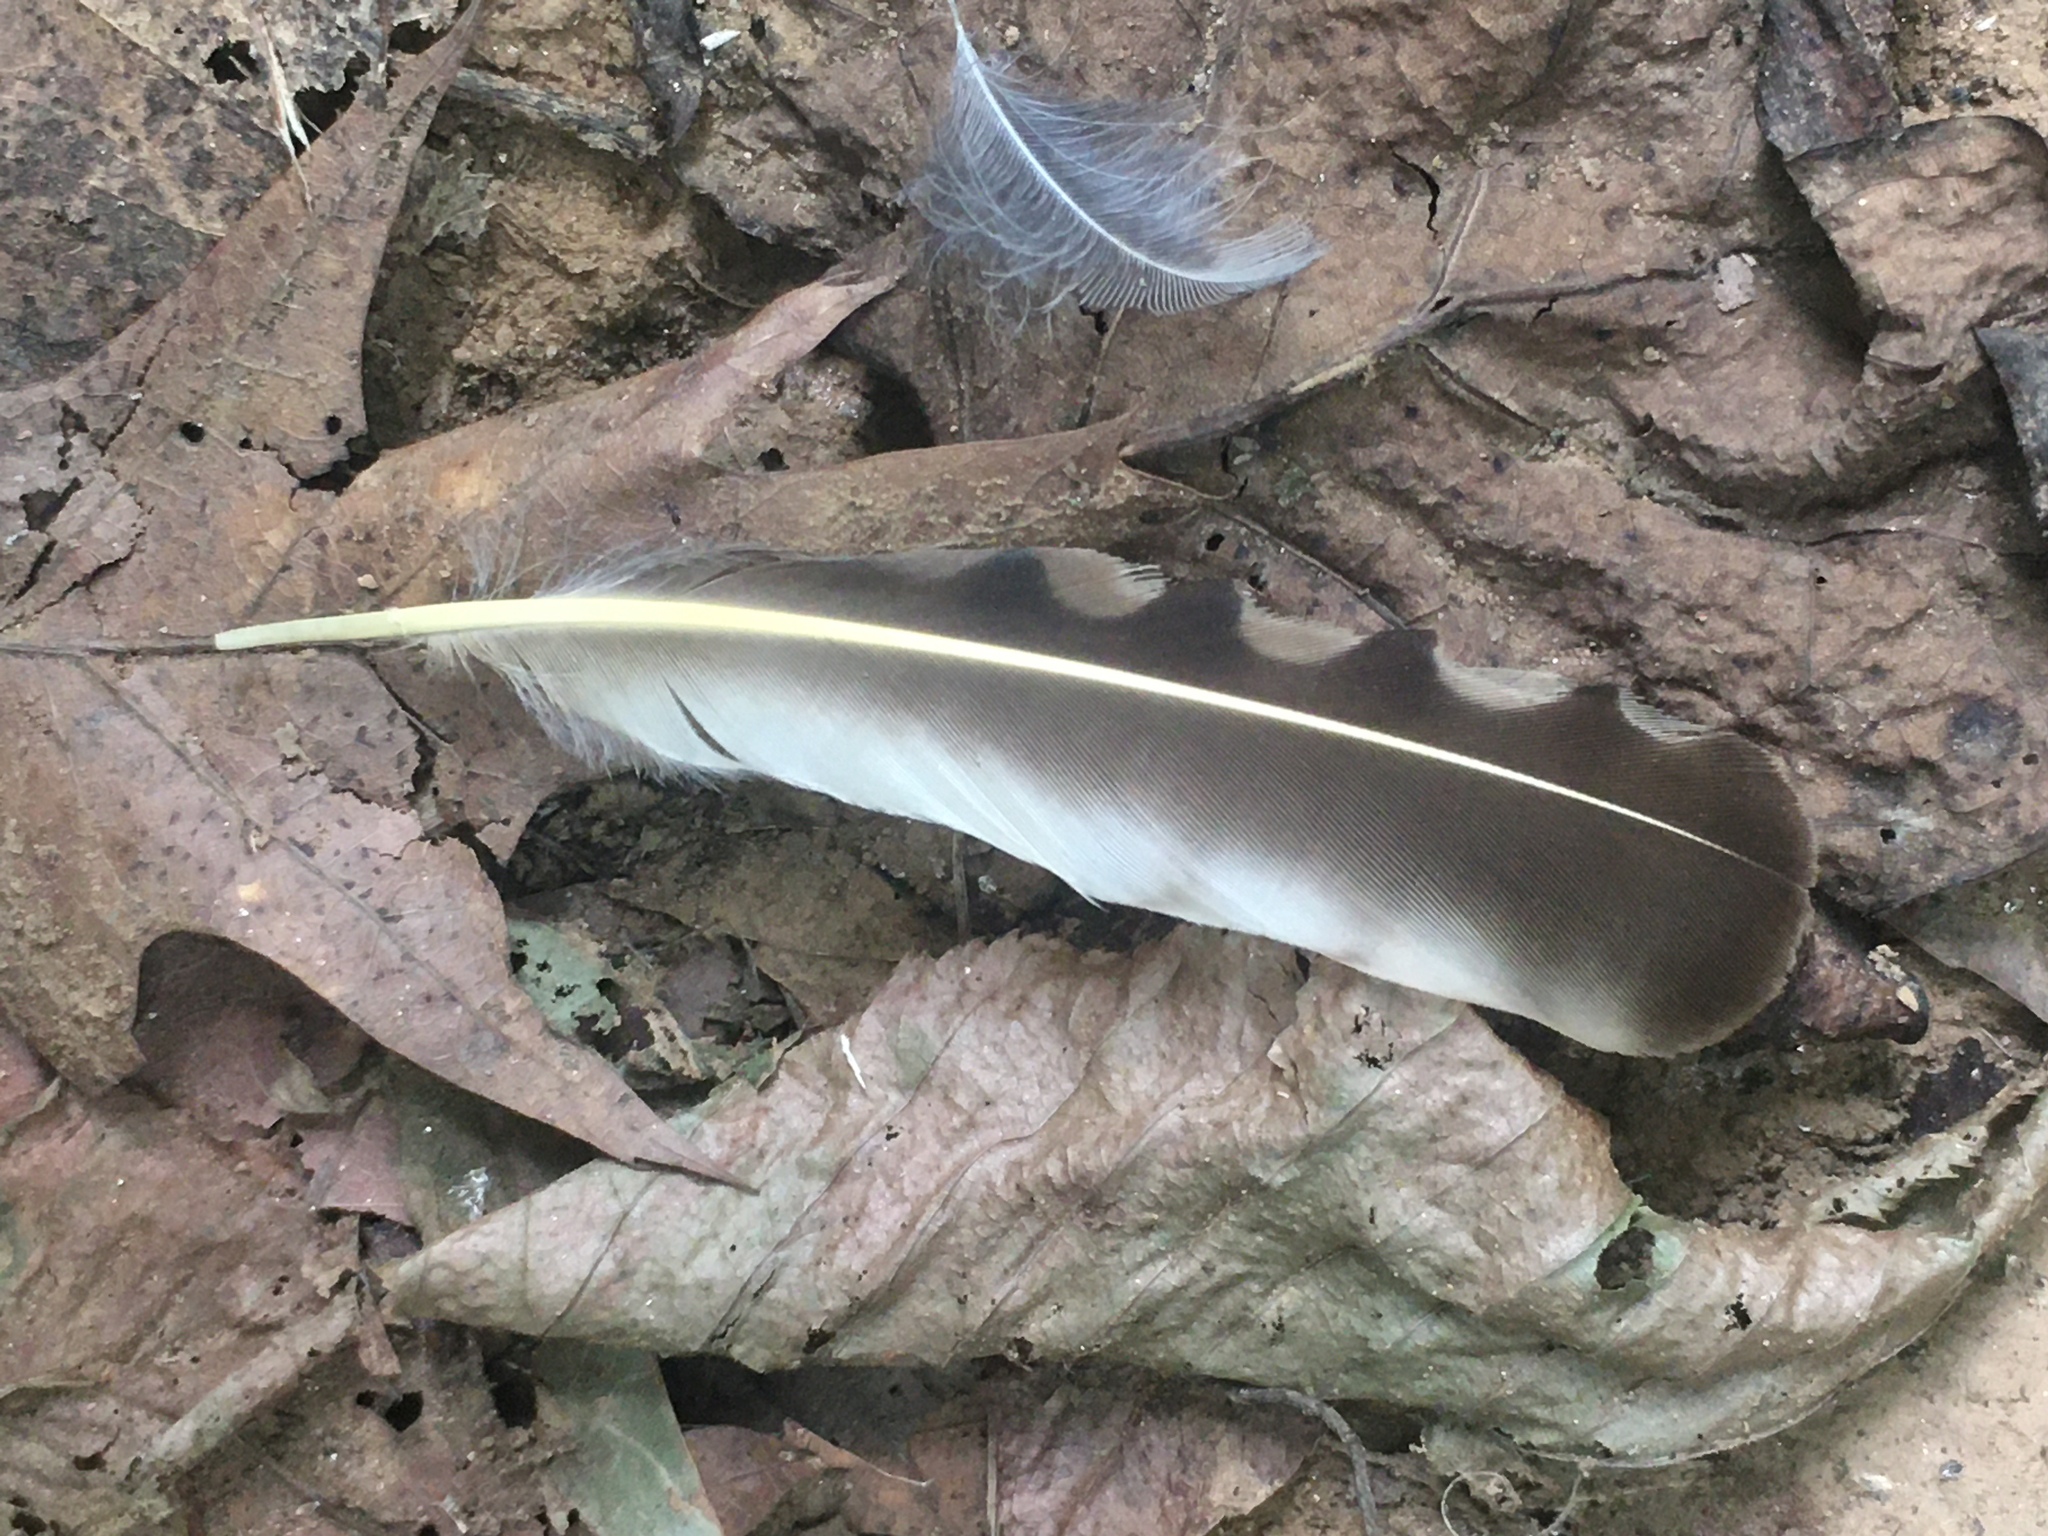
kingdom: Animalia
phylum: Chordata
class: Aves
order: Piciformes
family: Picidae
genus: Colaptes
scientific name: Colaptes auratus
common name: Northern flicker
